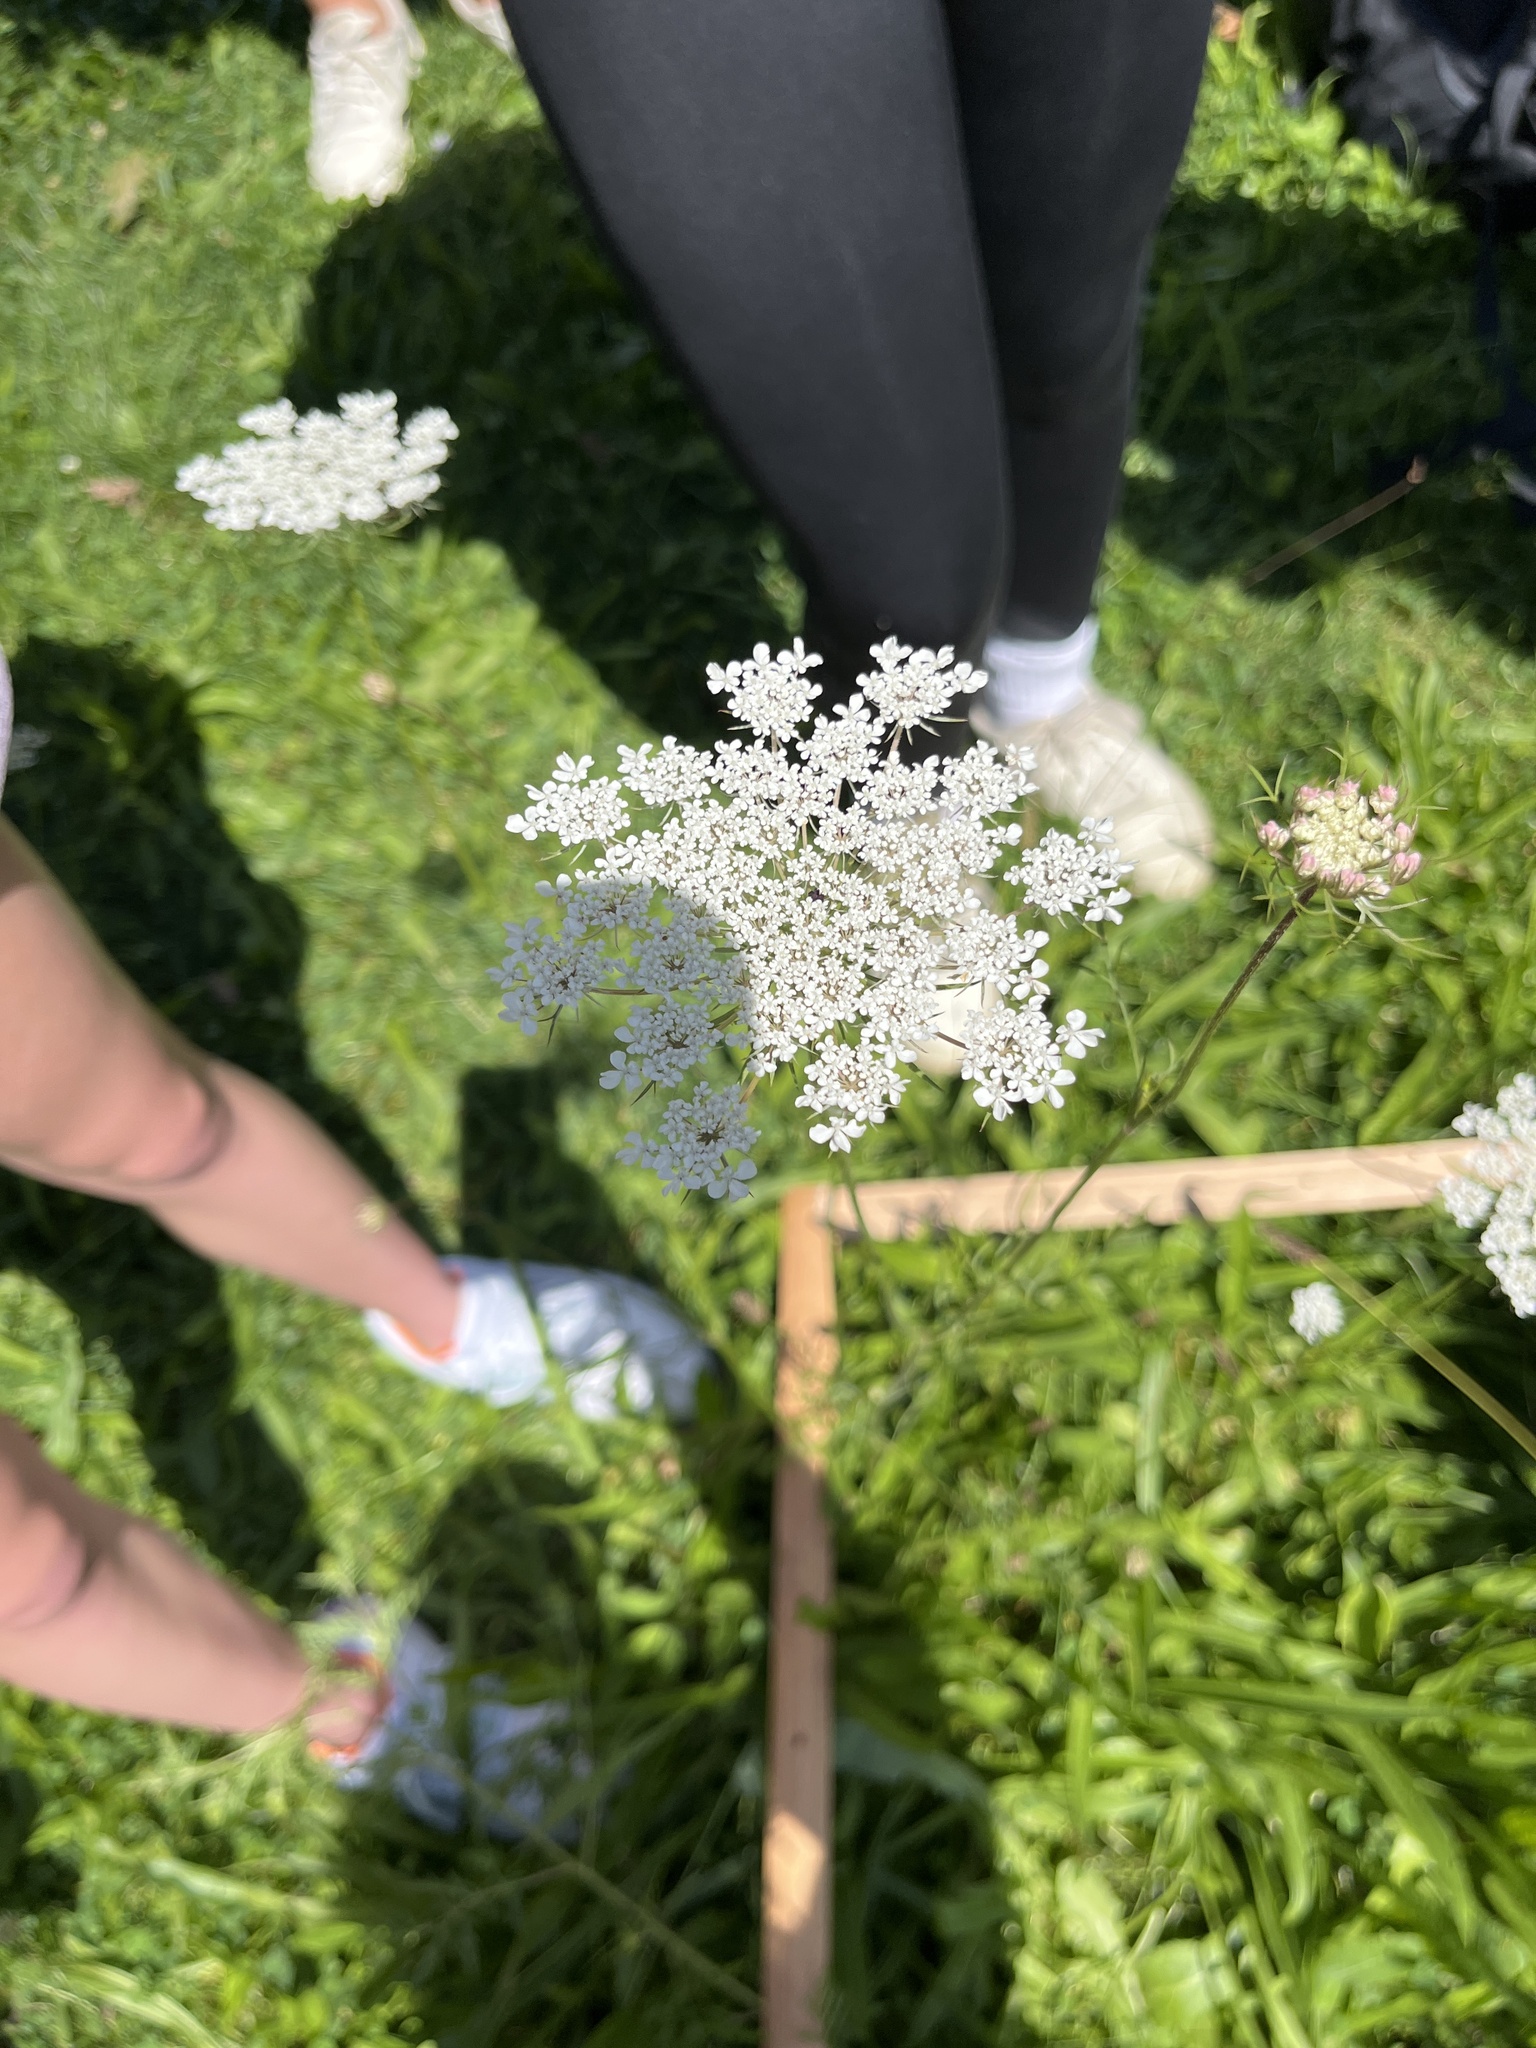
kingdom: Plantae
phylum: Tracheophyta
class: Magnoliopsida
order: Apiales
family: Apiaceae
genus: Daucus
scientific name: Daucus carota
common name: Wild carrot
